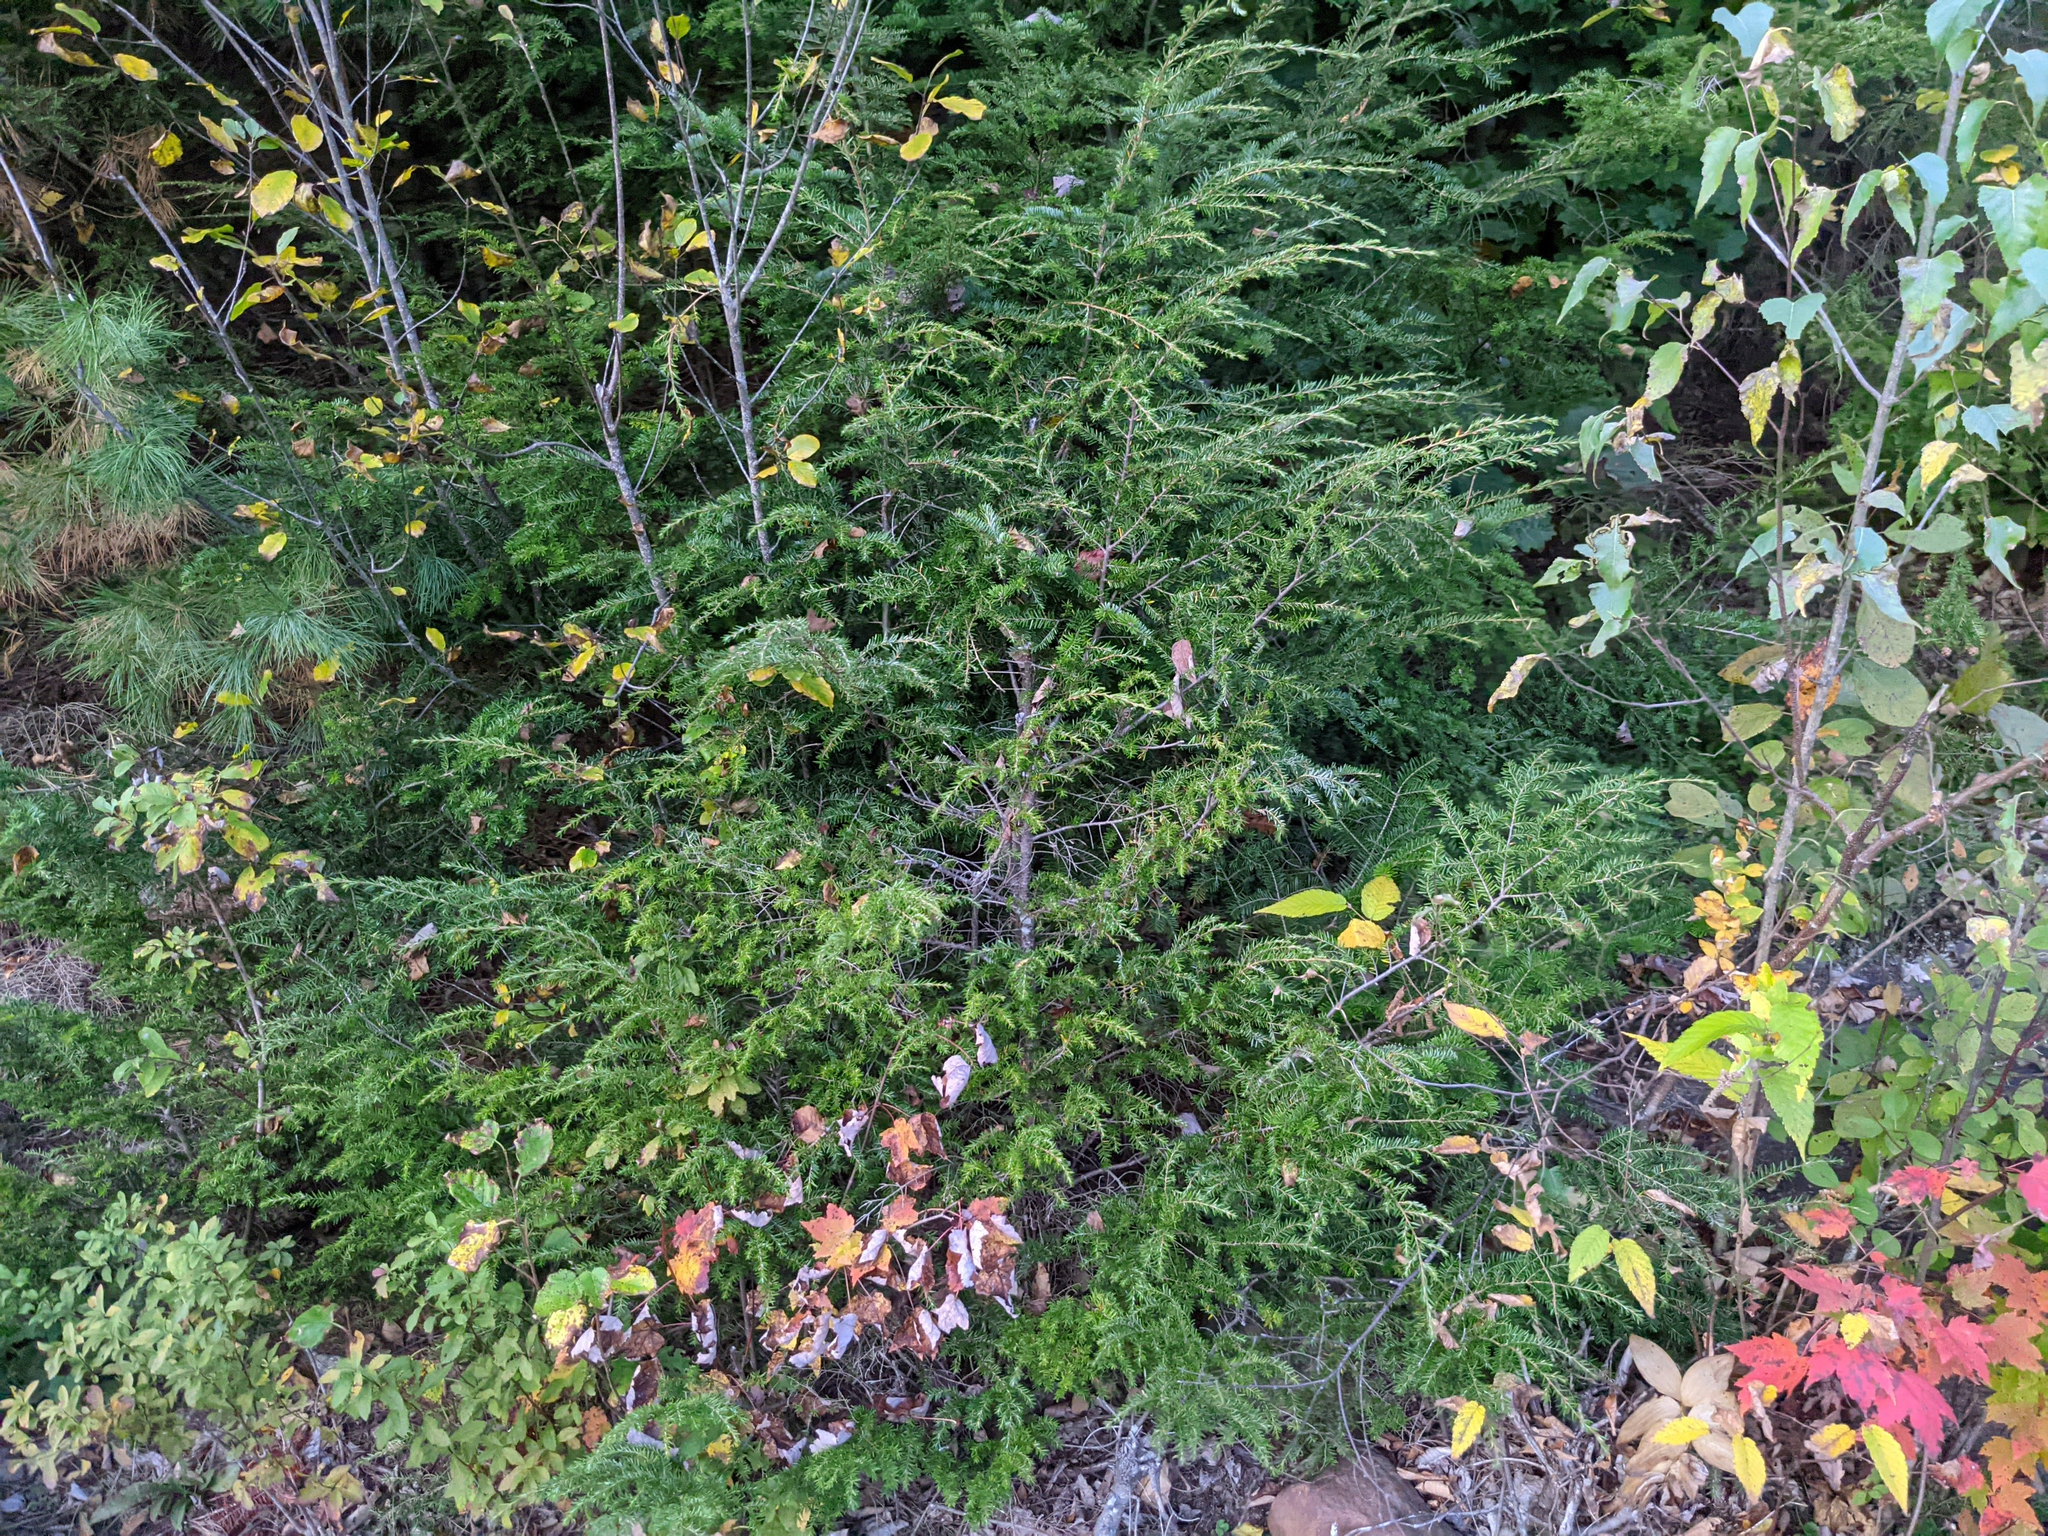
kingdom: Plantae
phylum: Tracheophyta
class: Pinopsida
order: Pinales
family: Pinaceae
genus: Tsuga
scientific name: Tsuga canadensis
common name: Eastern hemlock
